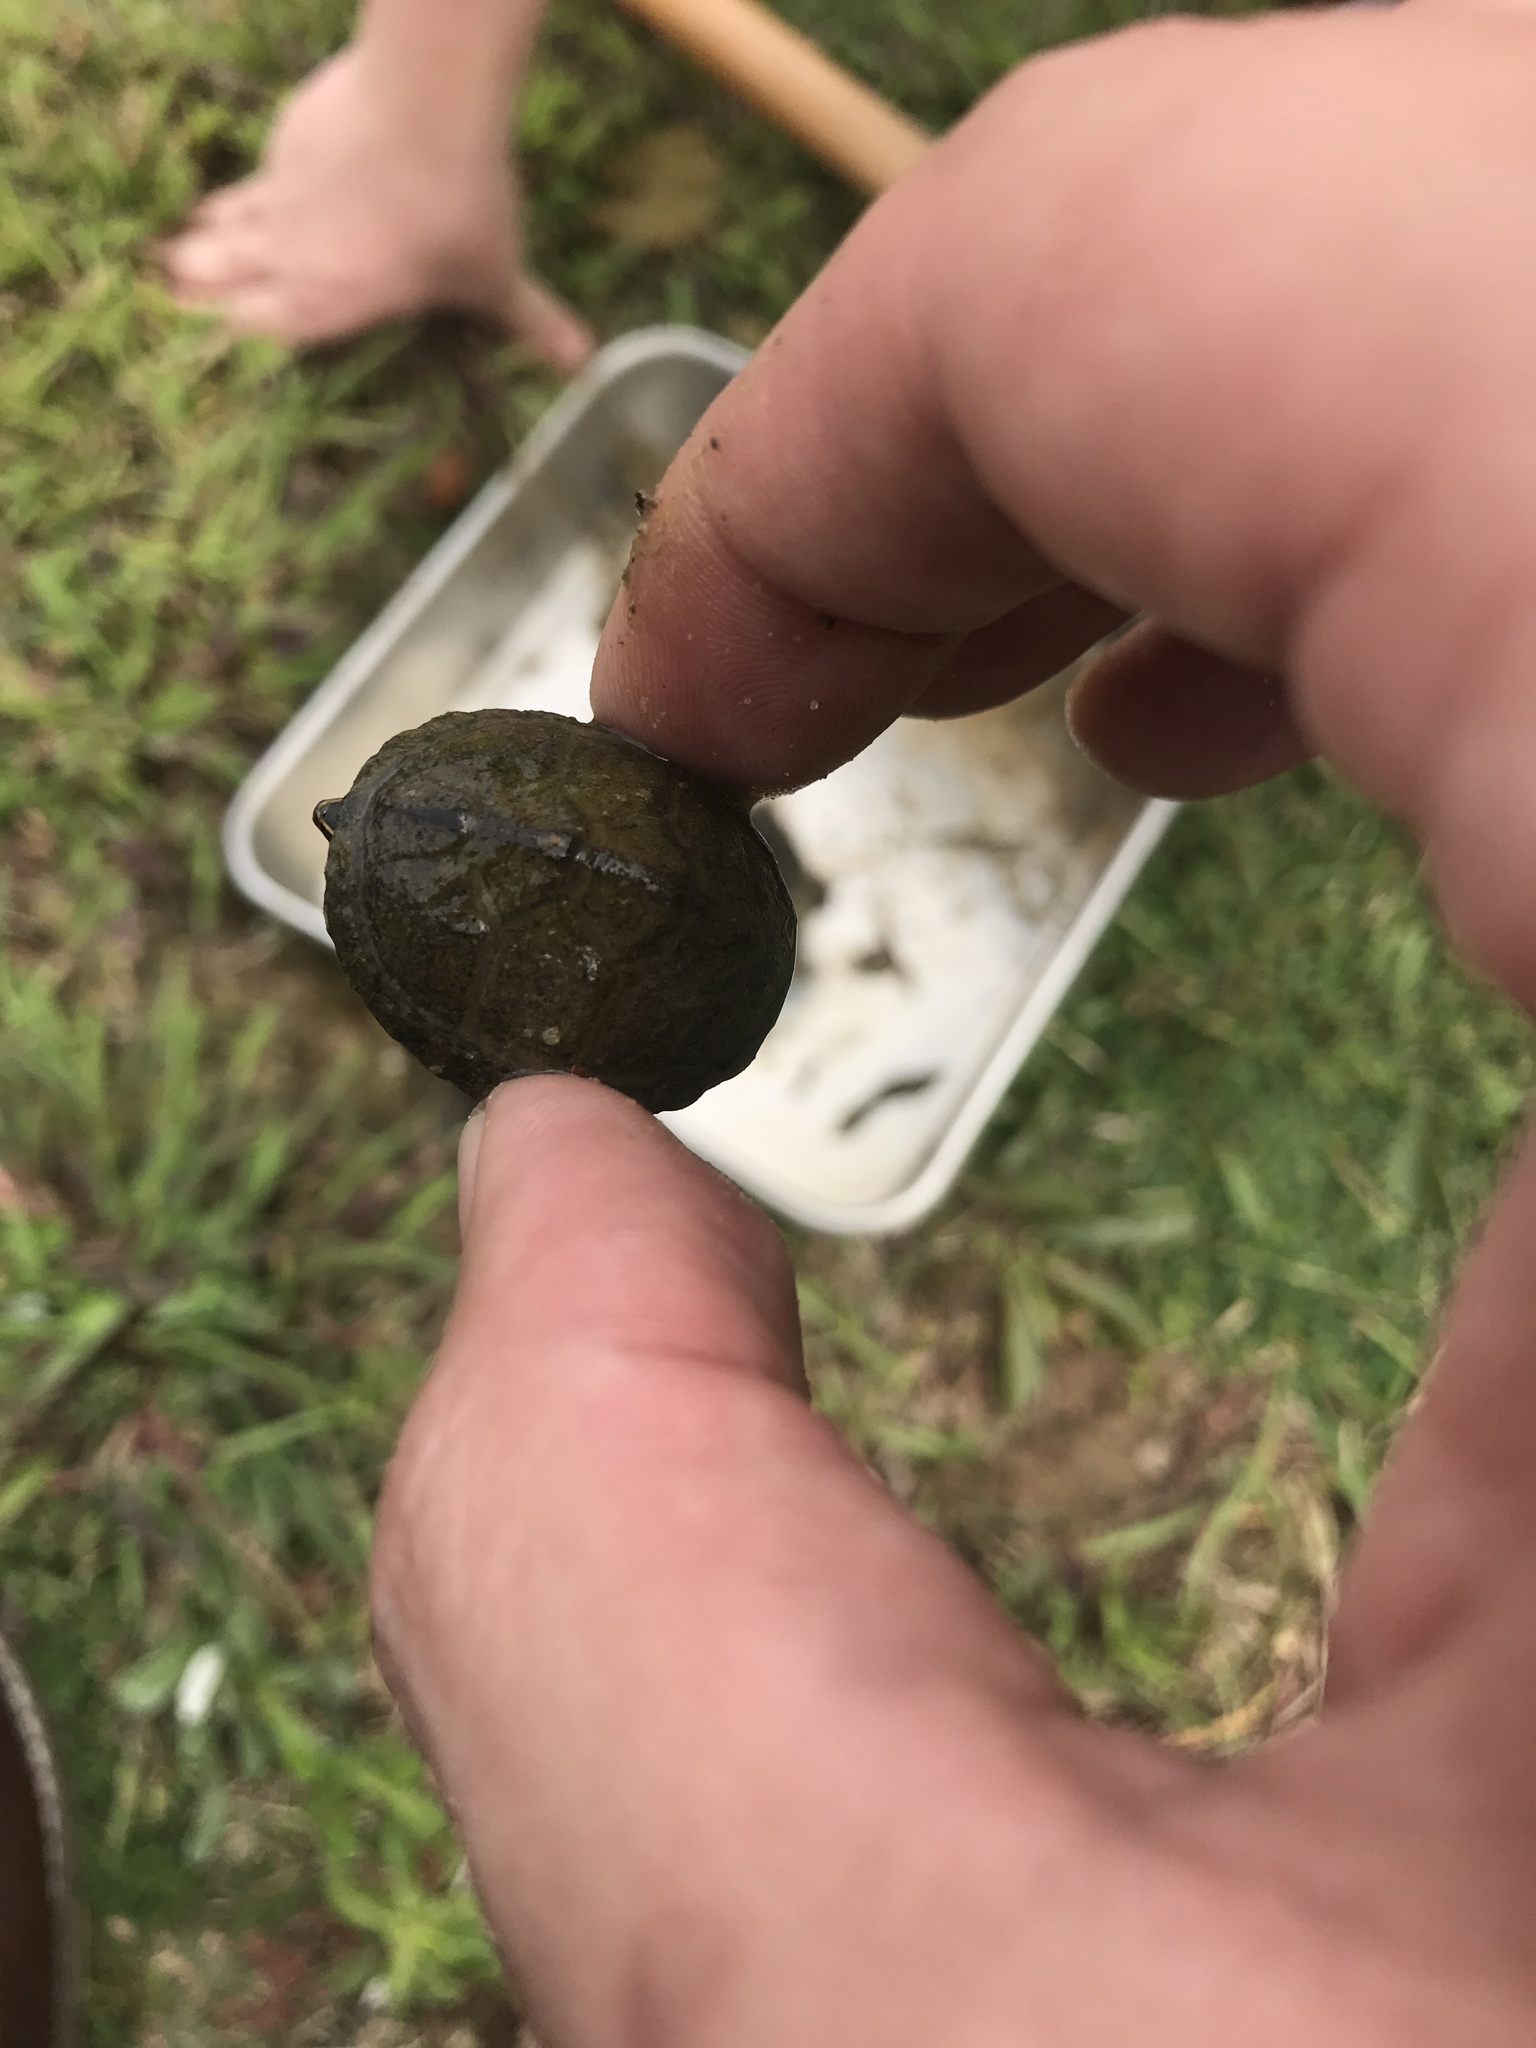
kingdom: Animalia
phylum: Chordata
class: Testudines
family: Kinosternidae
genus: Sternotherus
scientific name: Sternotherus odoratus
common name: Common musk turtle
